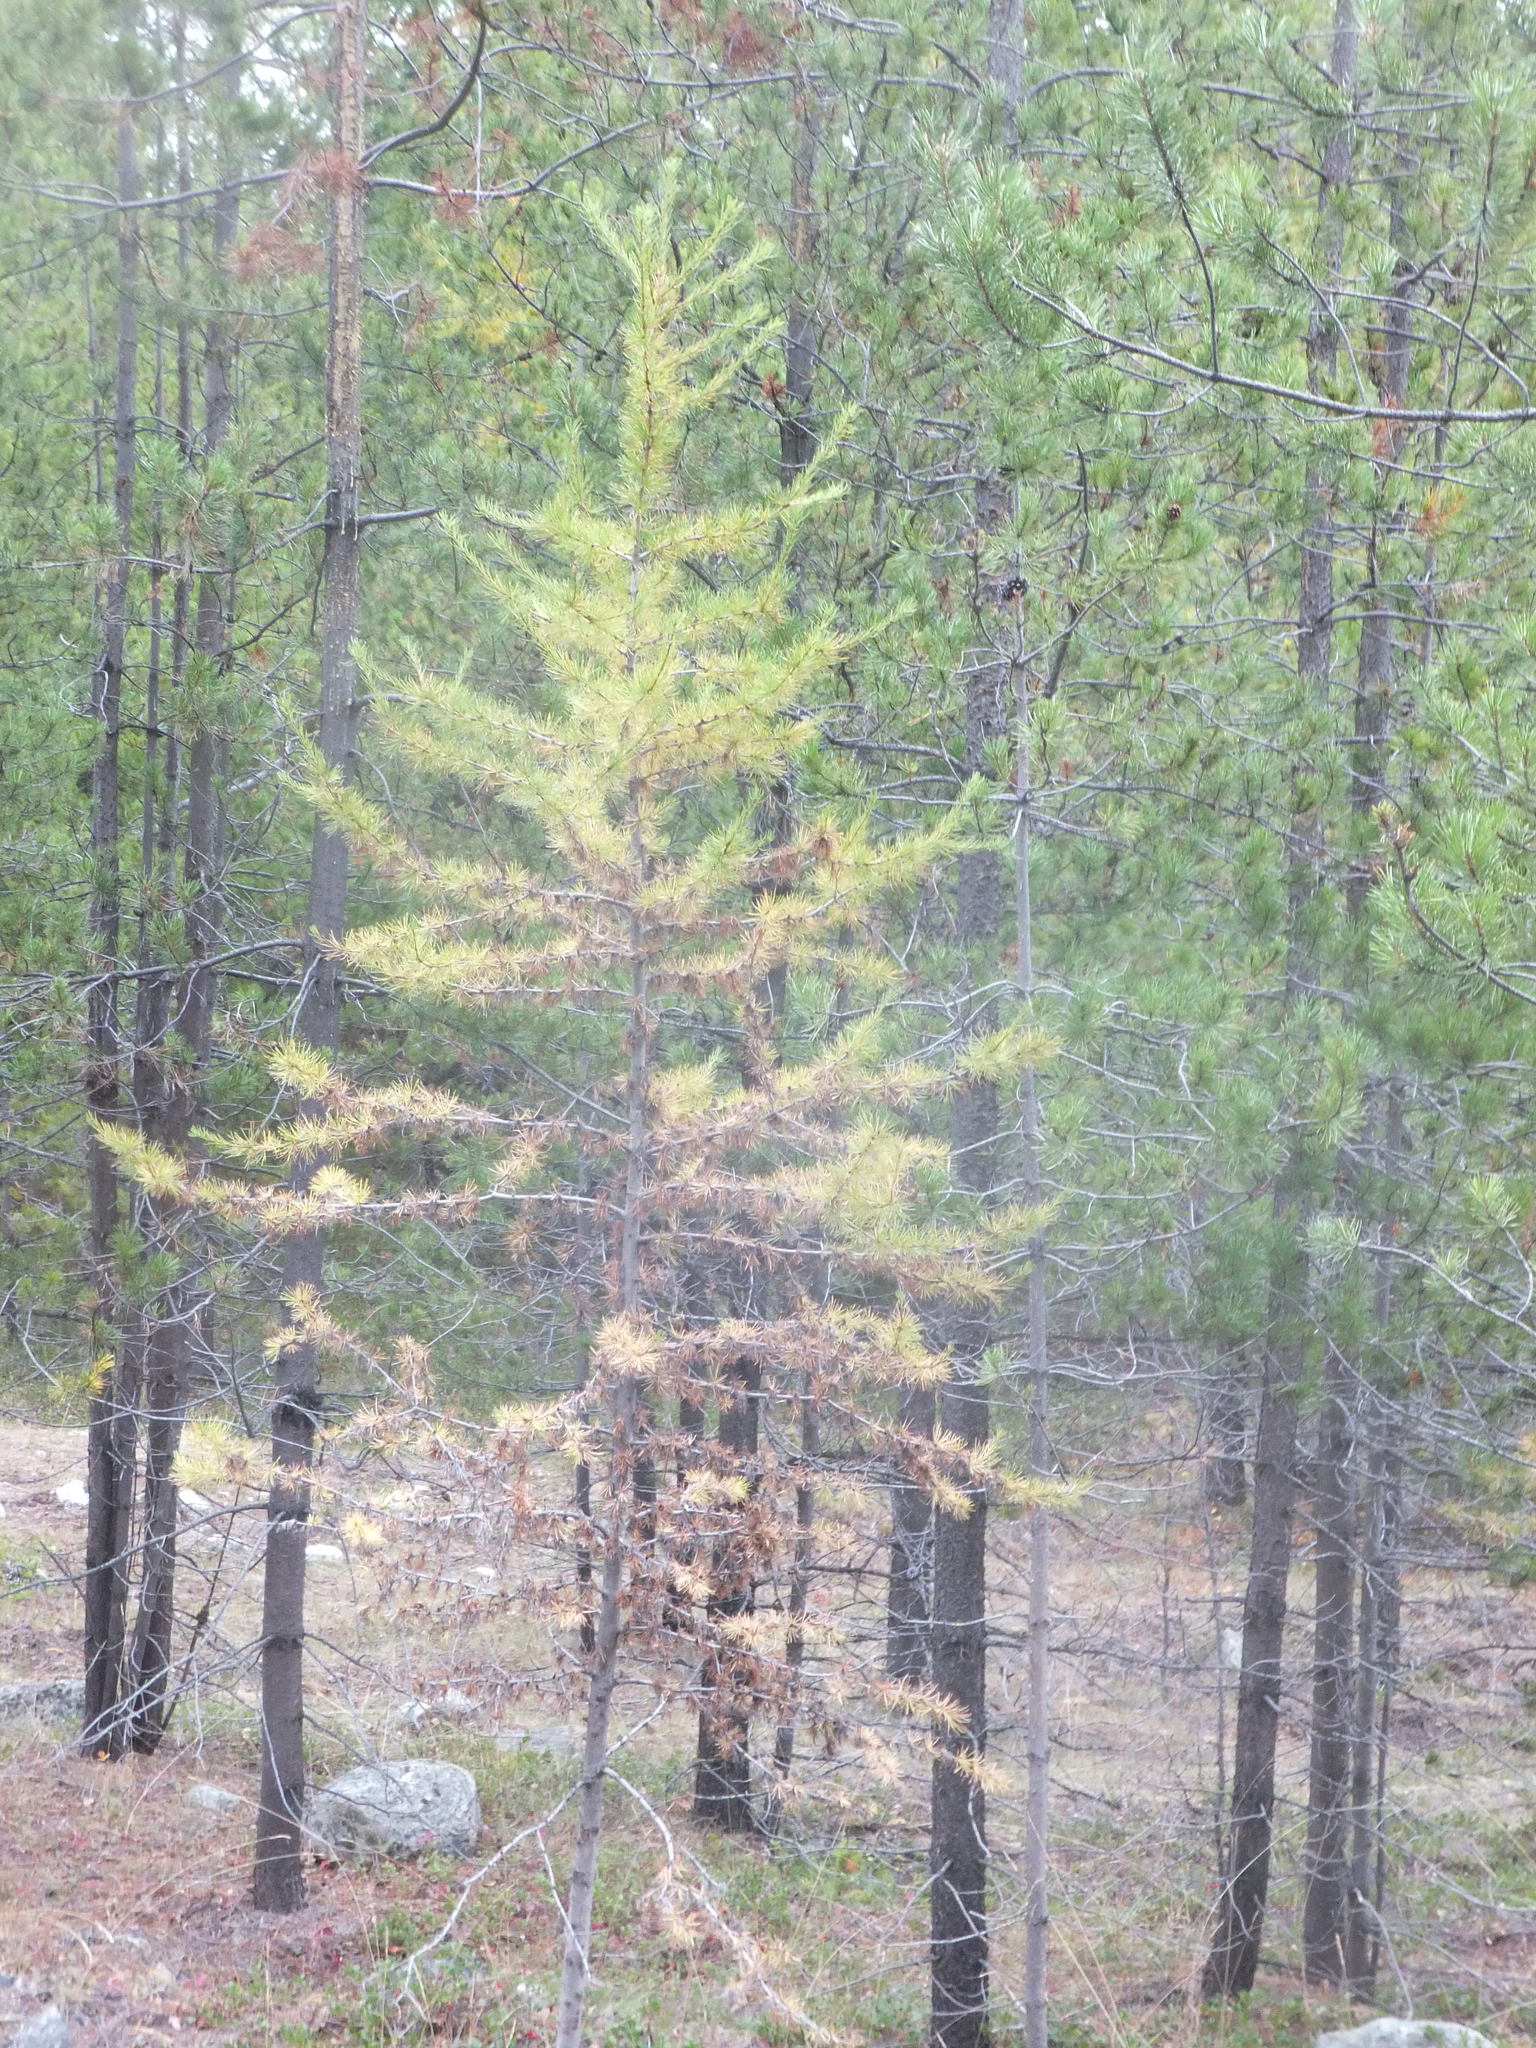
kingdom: Plantae
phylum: Tracheophyta
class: Pinopsida
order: Pinales
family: Pinaceae
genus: Larix
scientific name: Larix occidentalis
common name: Western larch
